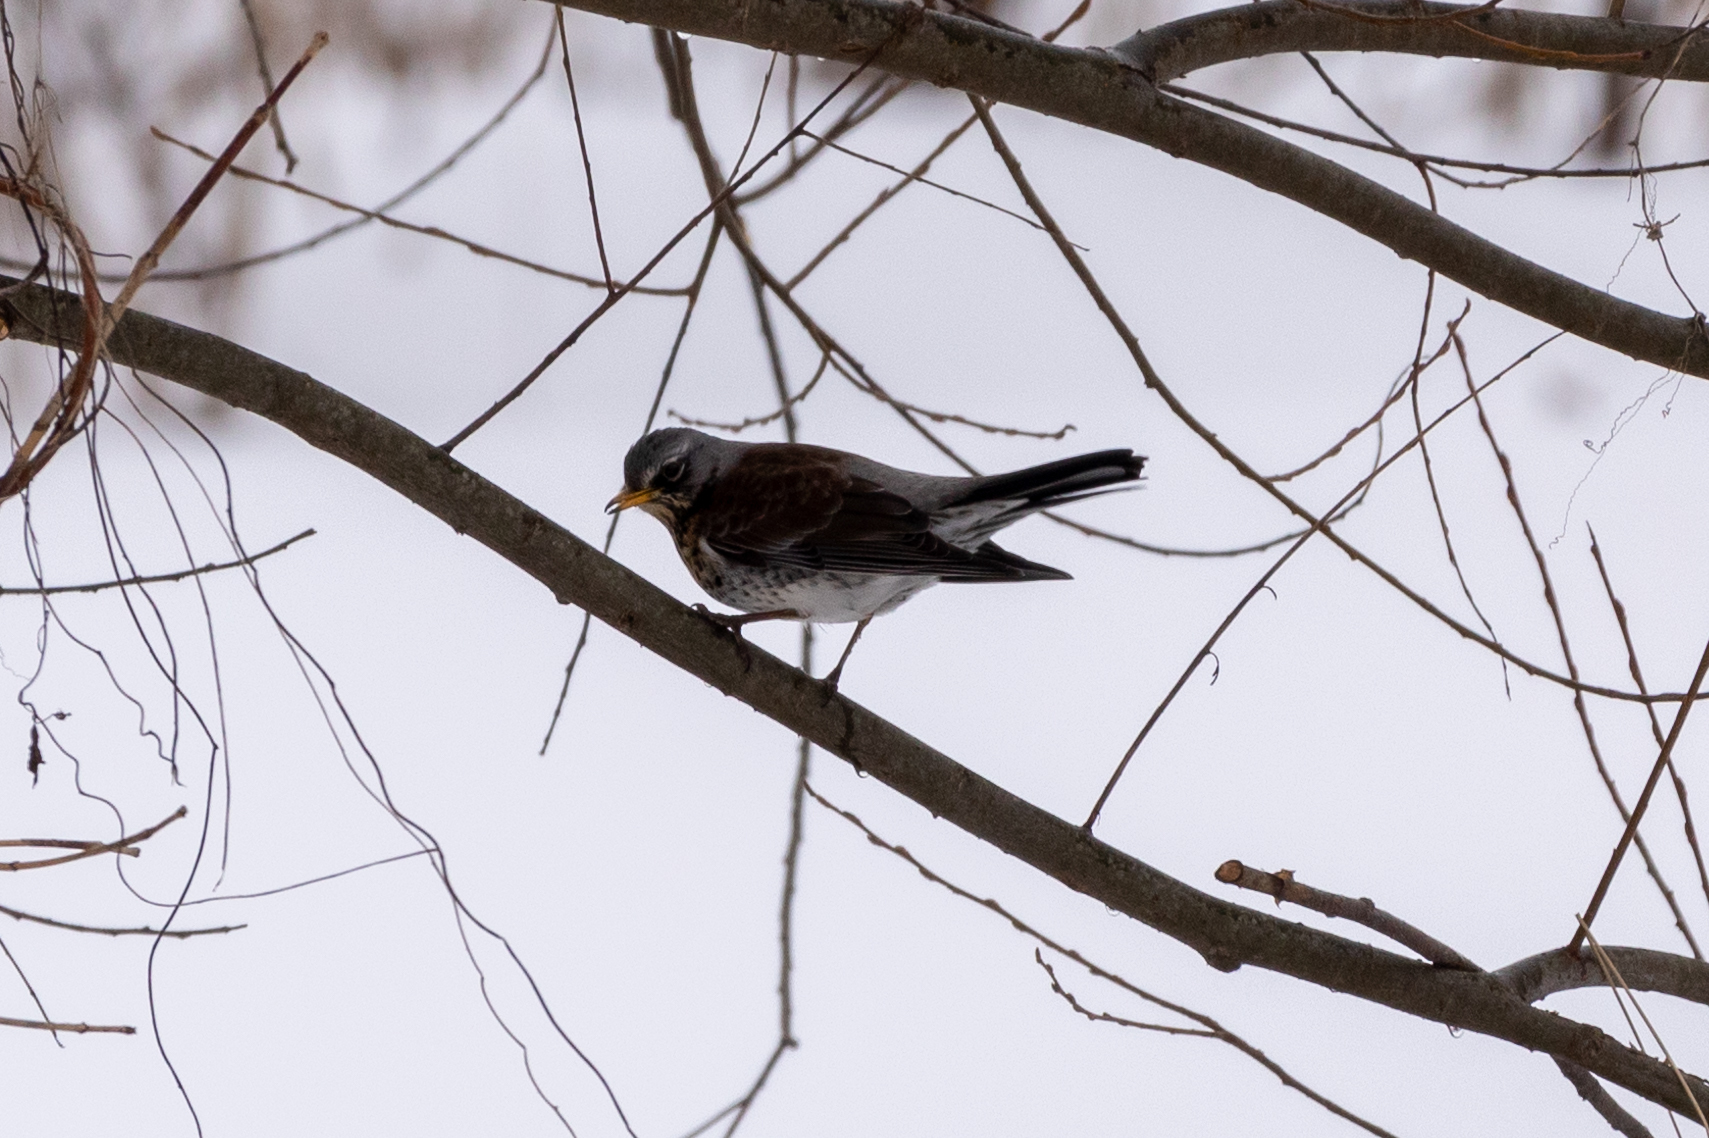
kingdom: Animalia
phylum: Chordata
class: Aves
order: Passeriformes
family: Turdidae
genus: Turdus
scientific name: Turdus pilaris
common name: Fieldfare
